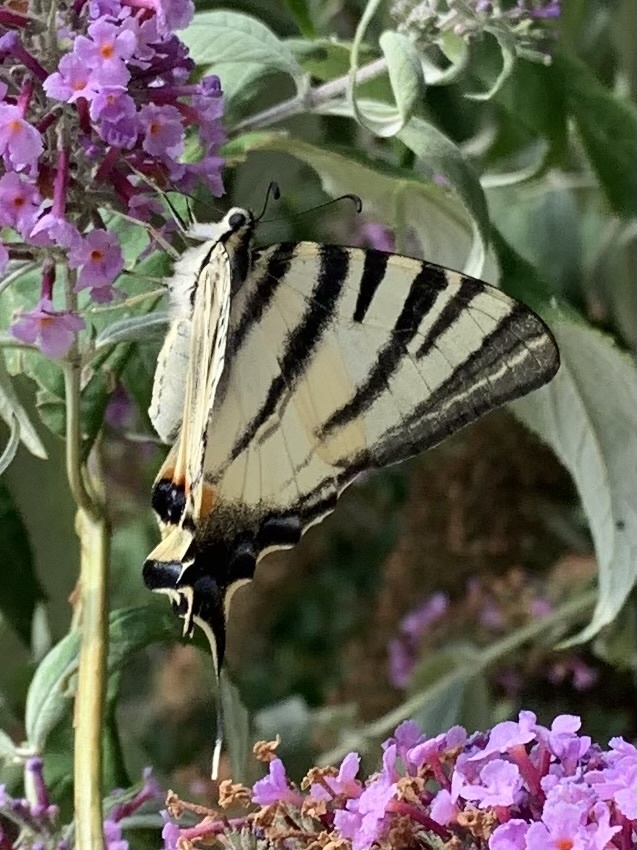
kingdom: Animalia
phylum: Arthropoda
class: Insecta
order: Lepidoptera
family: Papilionidae
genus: Iphiclides
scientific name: Iphiclides podalirius
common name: Scarce swallowtail
